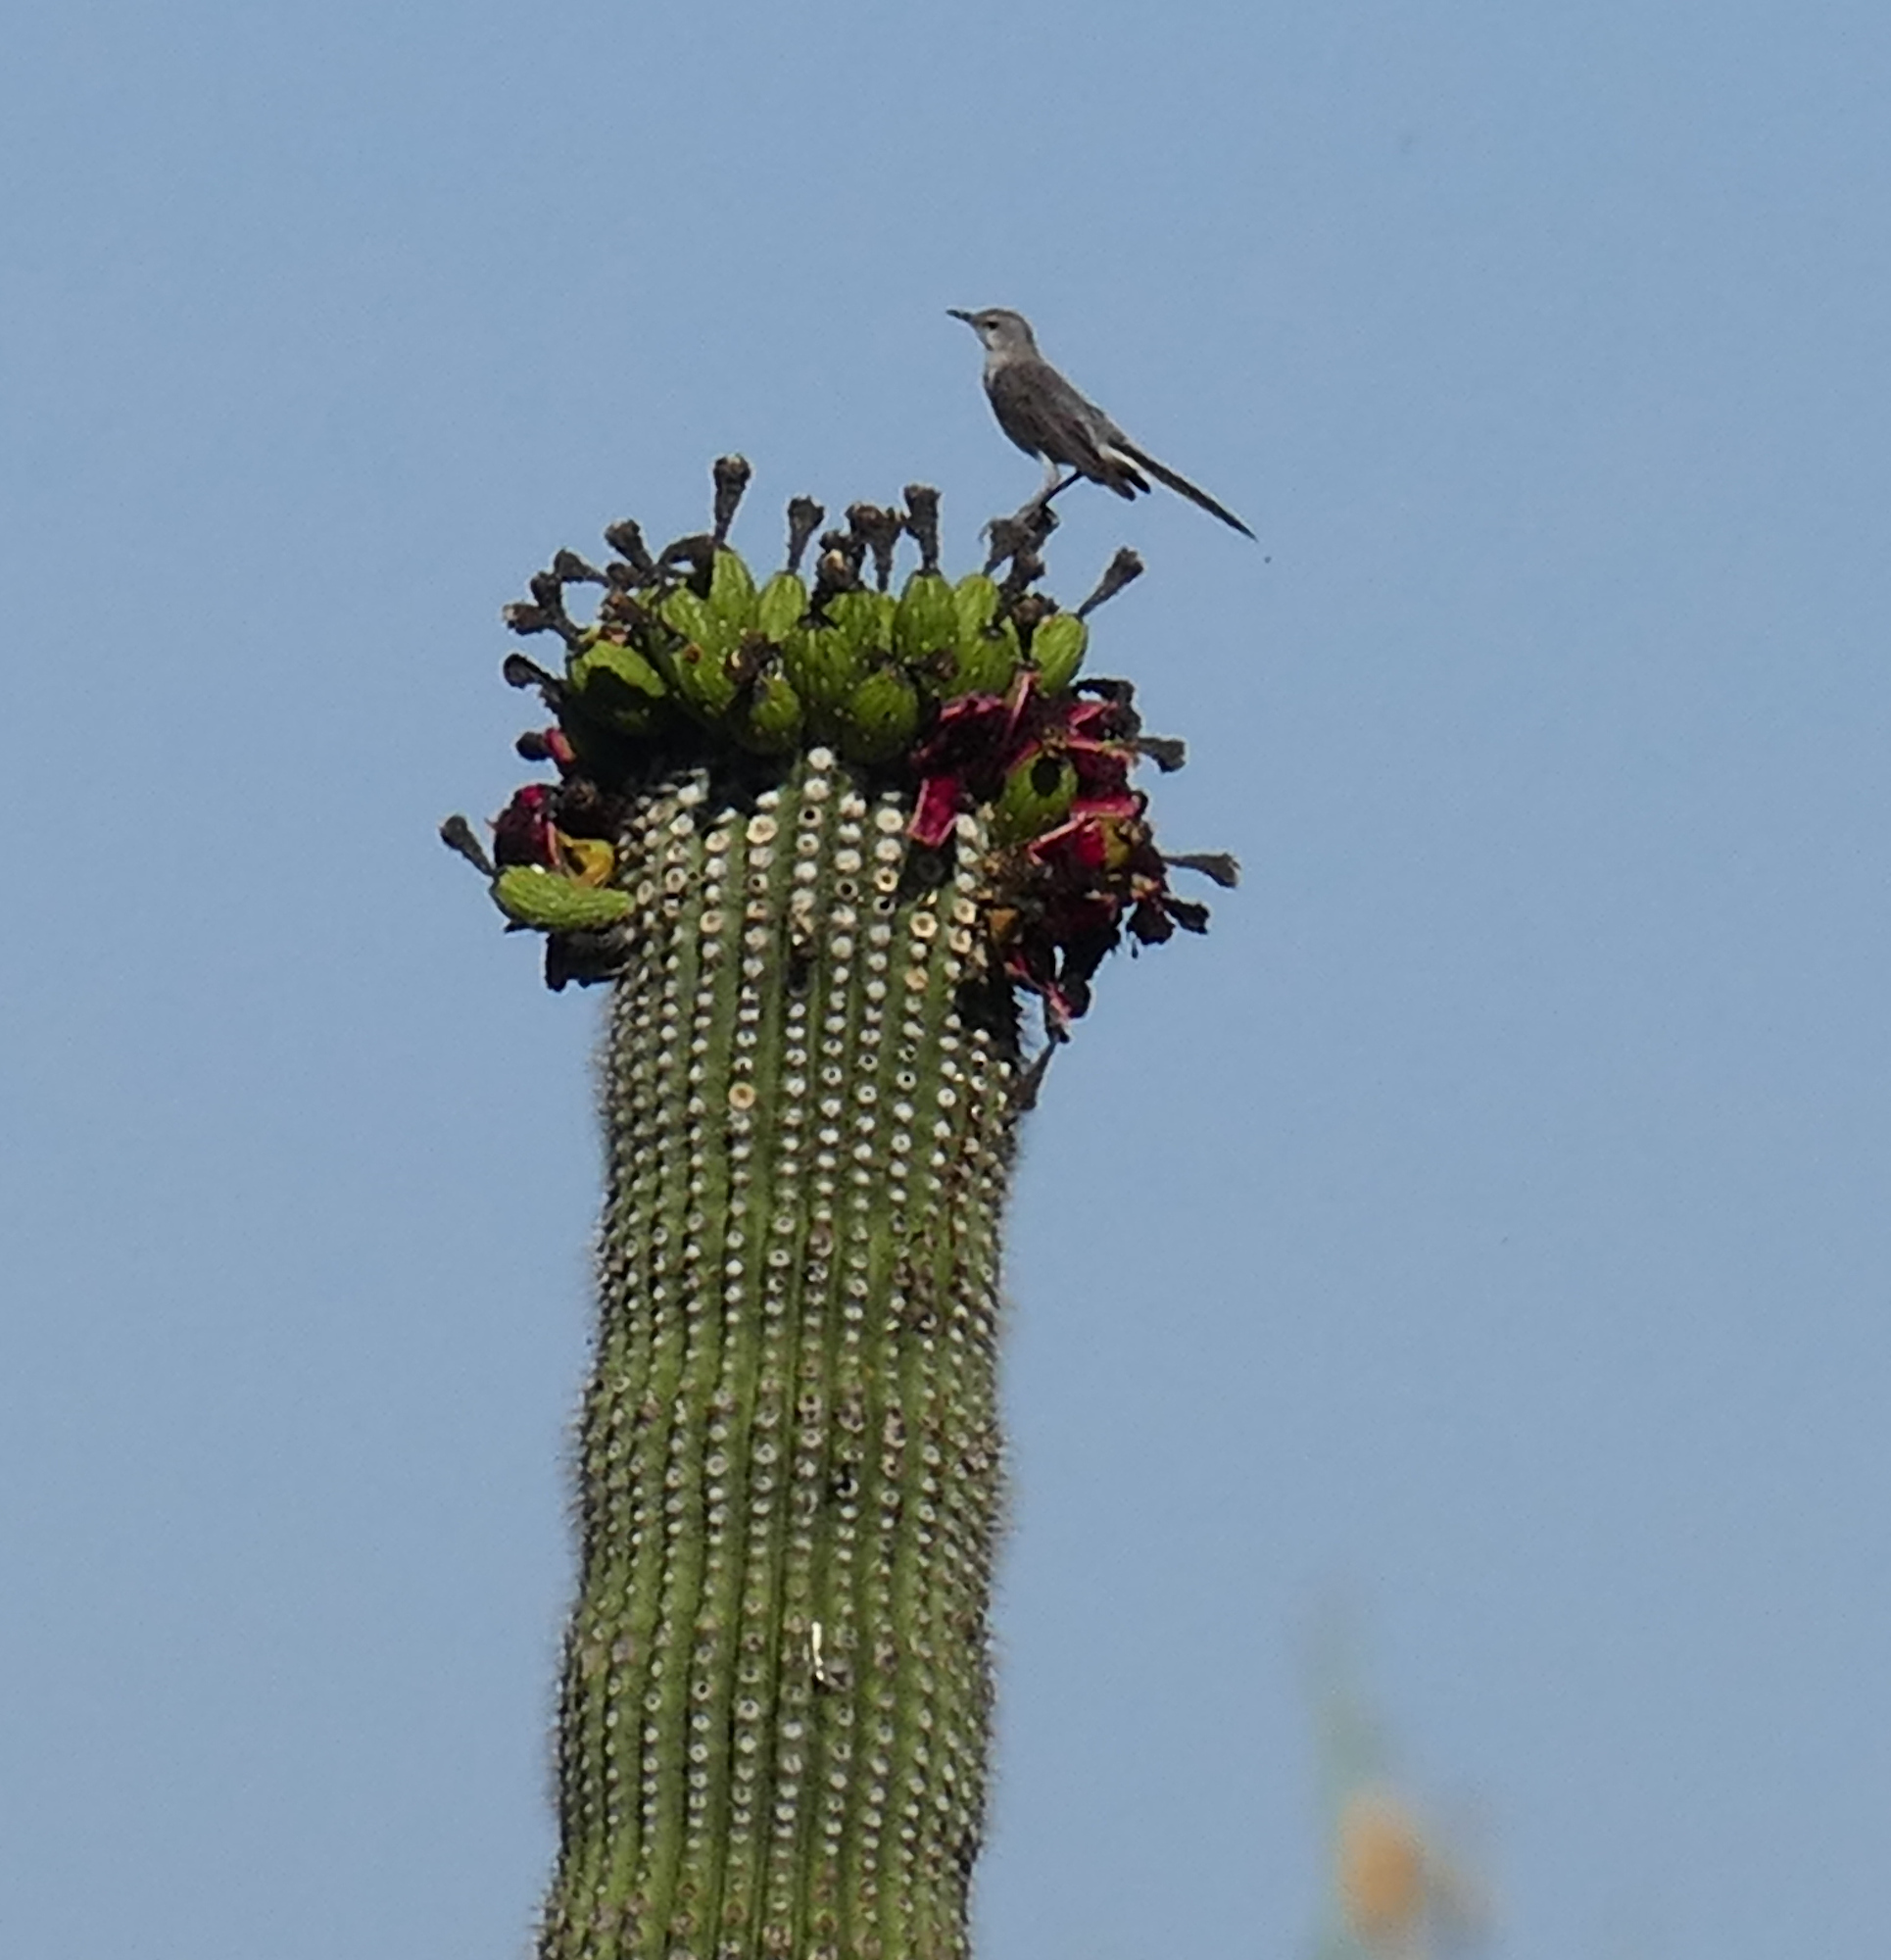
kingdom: Animalia
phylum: Chordata
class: Aves
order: Passeriformes
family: Mimidae
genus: Mimus
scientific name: Mimus polyglottos
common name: Northern mockingbird
